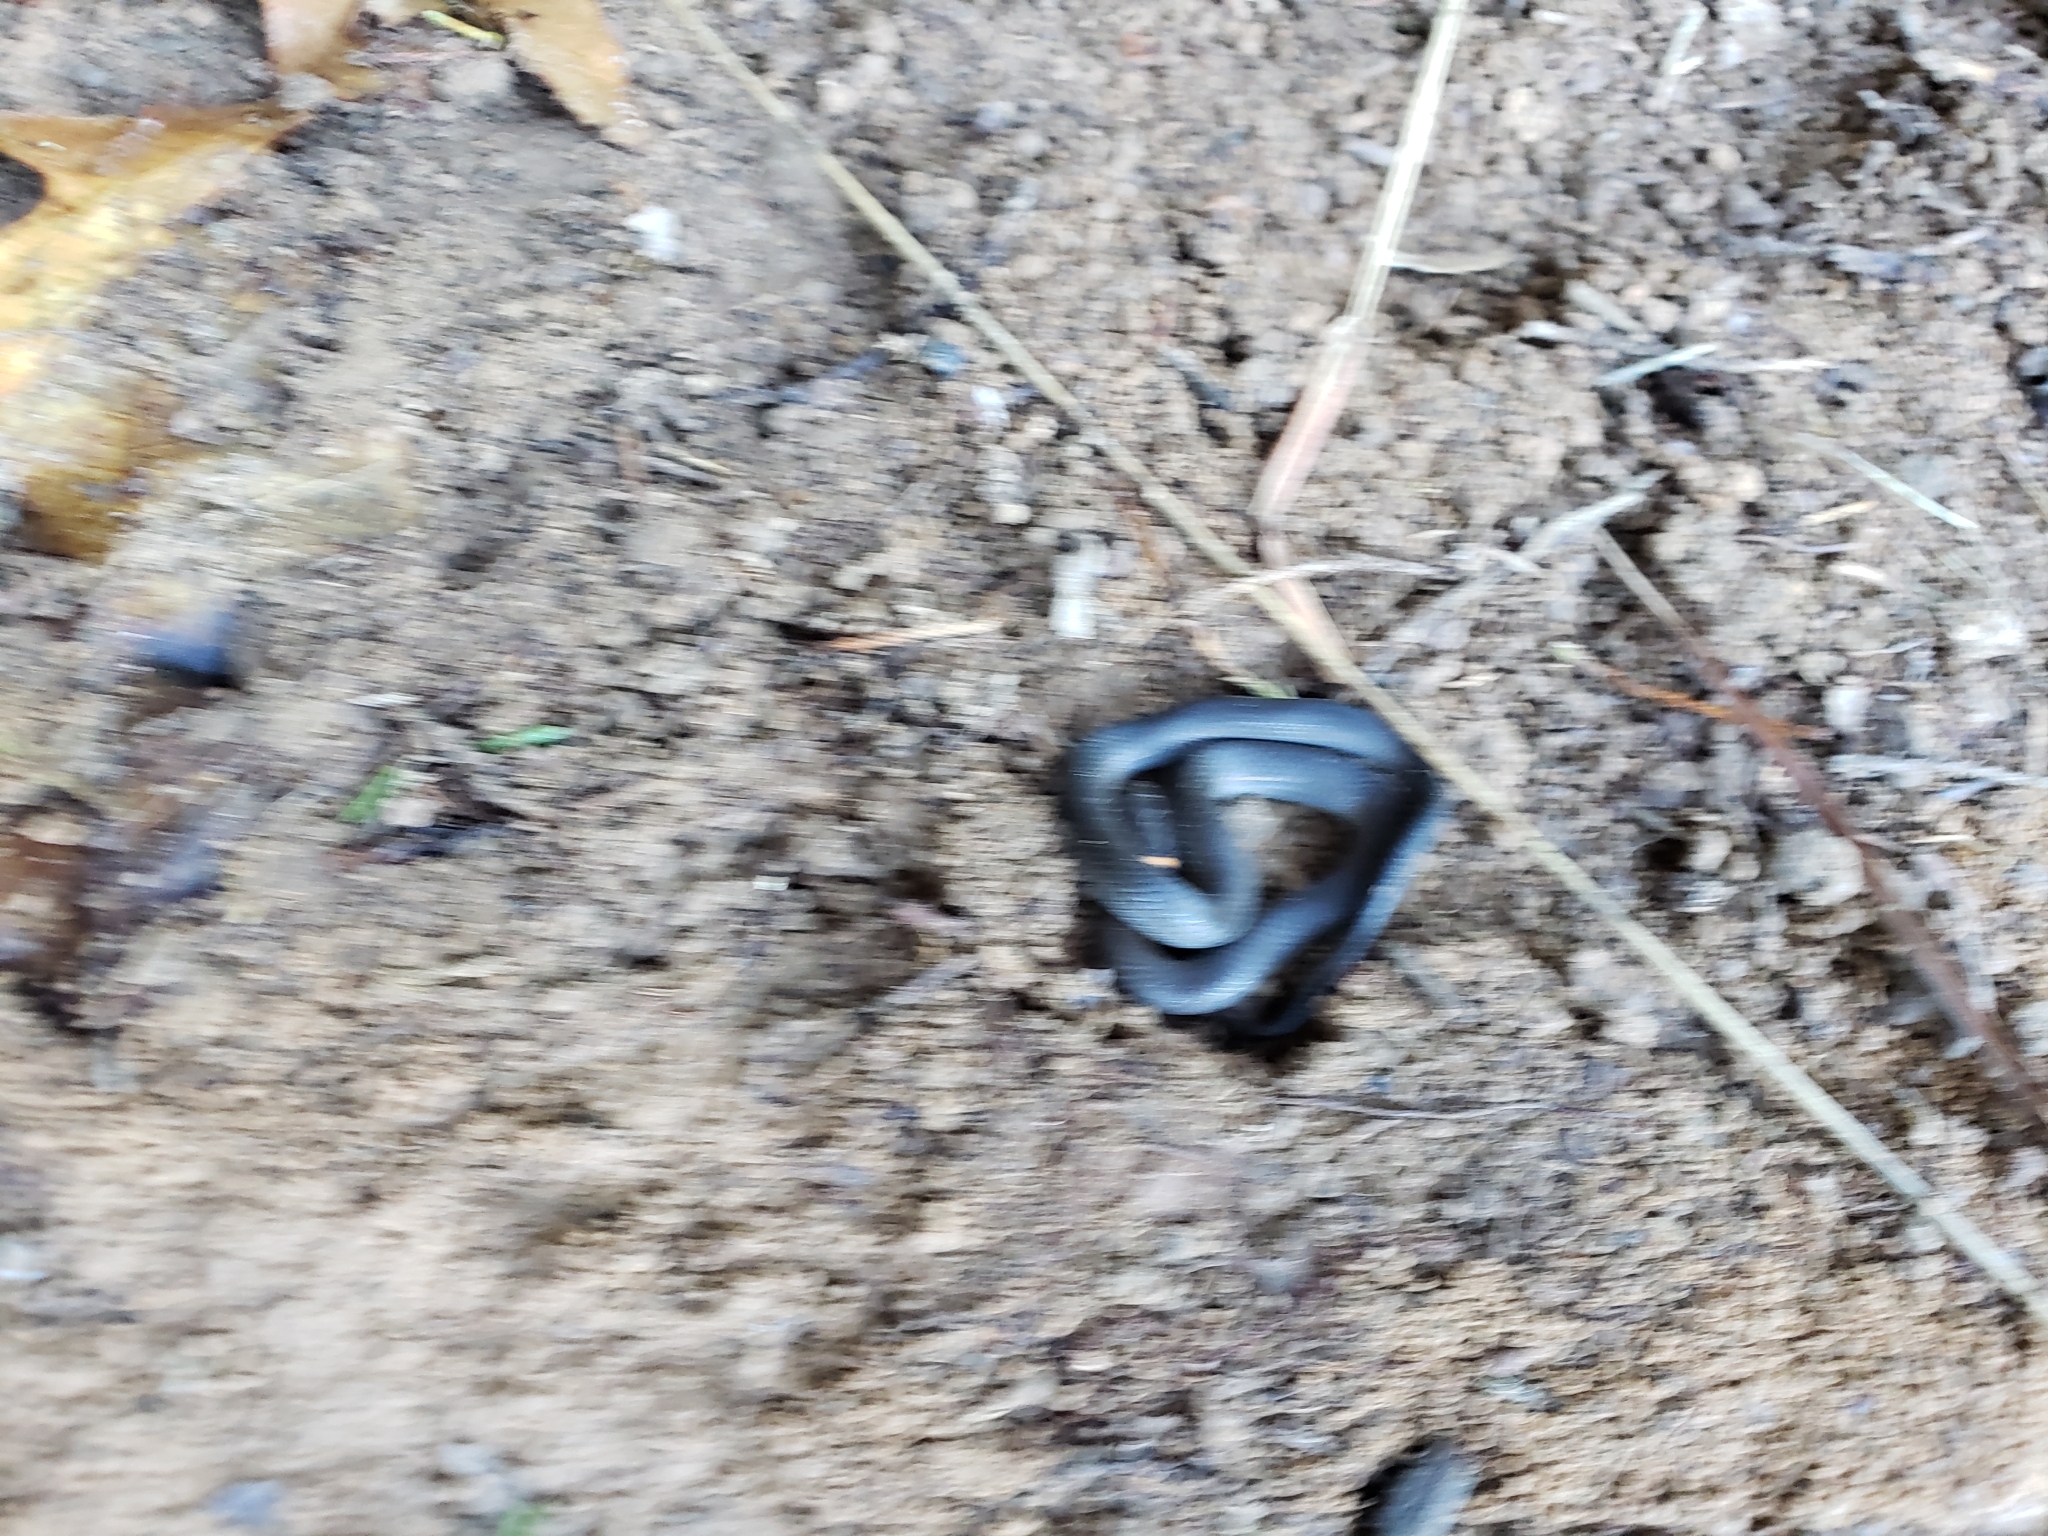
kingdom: Animalia
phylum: Chordata
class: Squamata
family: Colubridae
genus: Diadophis
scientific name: Diadophis punctatus
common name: Ringneck snake
